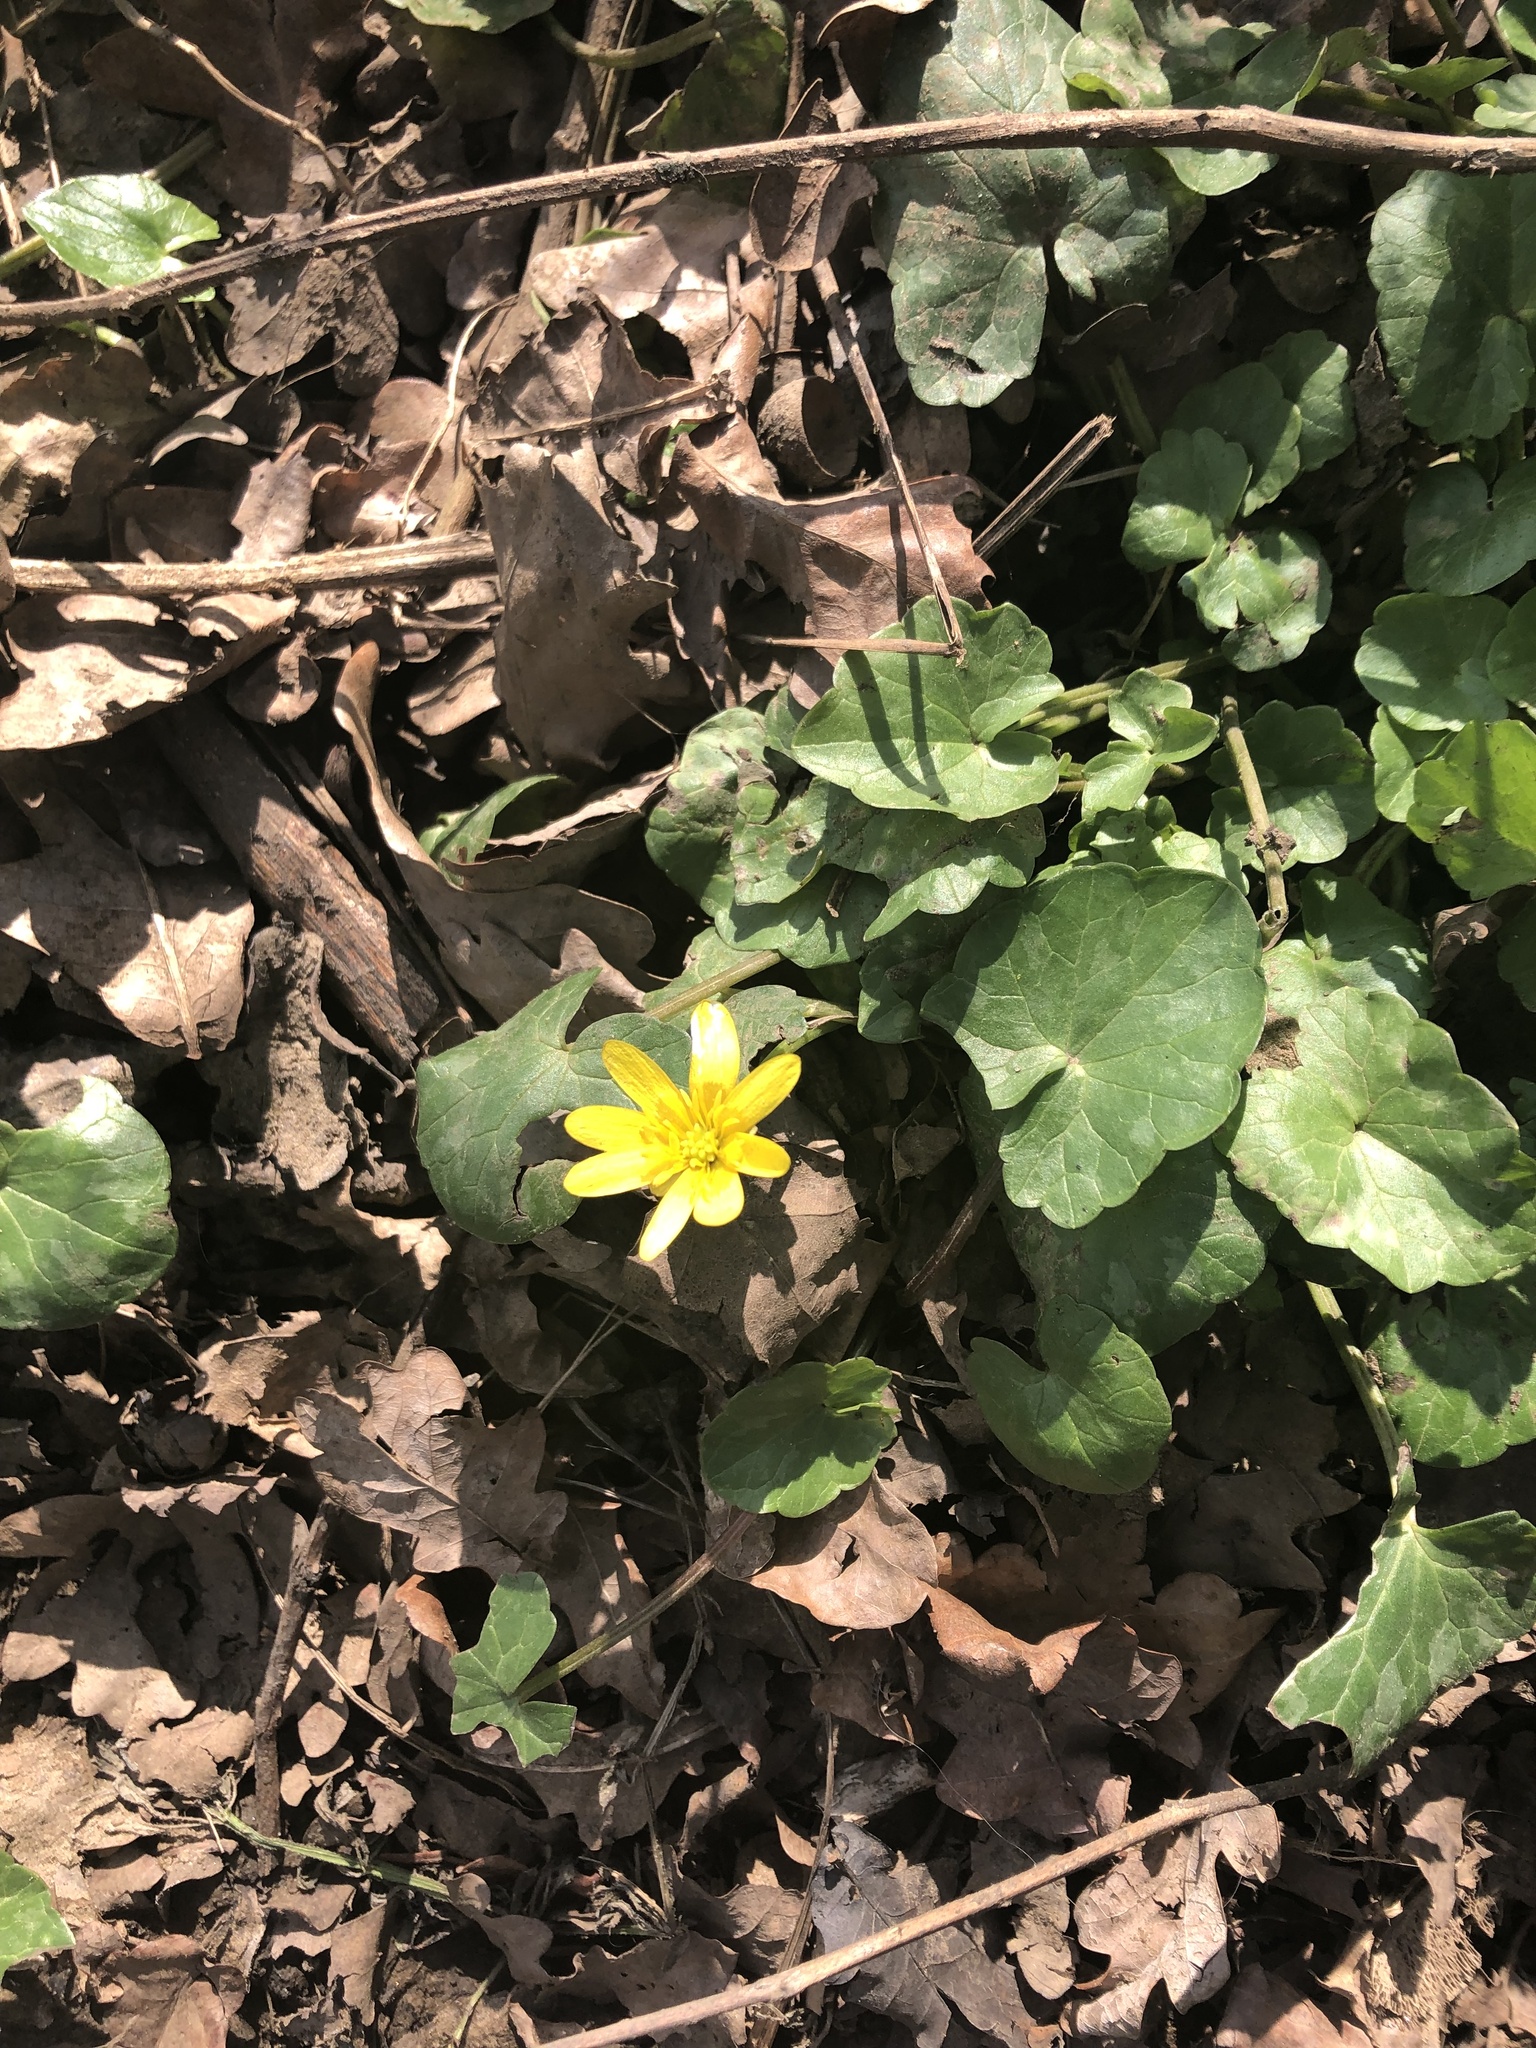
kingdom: Plantae
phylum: Tracheophyta
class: Magnoliopsida
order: Ranunculales
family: Ranunculaceae
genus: Ficaria
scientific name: Ficaria verna
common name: Lesser celandine
